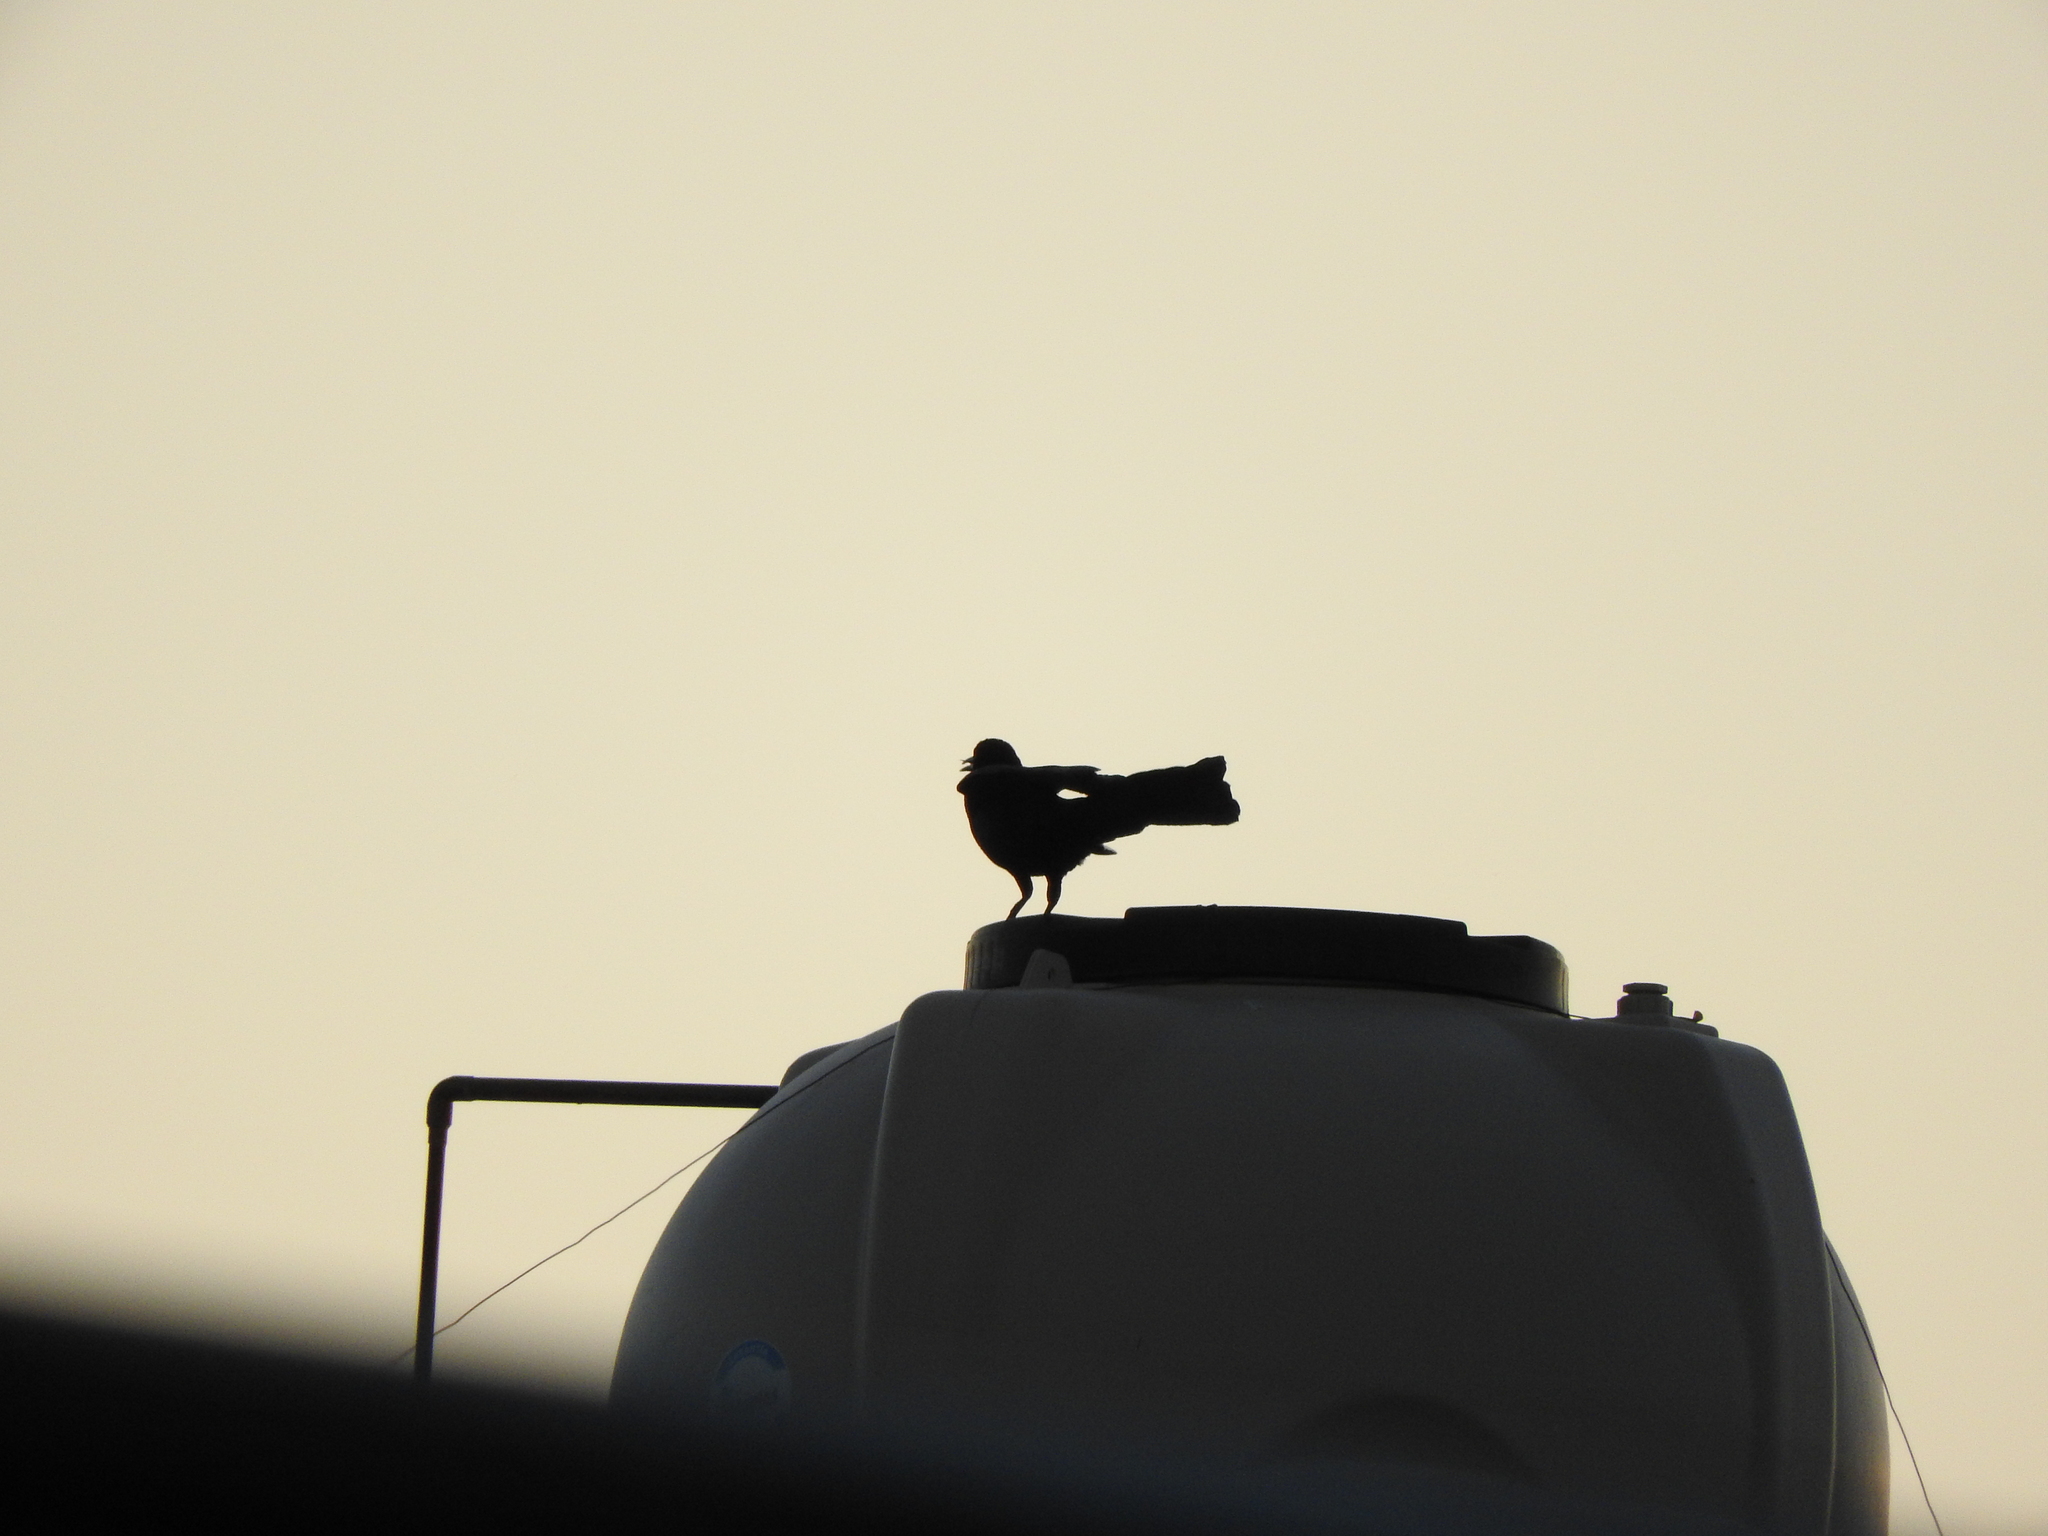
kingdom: Animalia
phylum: Chordata
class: Aves
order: Passeriformes
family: Icteridae
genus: Quiscalus
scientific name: Quiscalus mexicanus
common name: Great-tailed grackle
